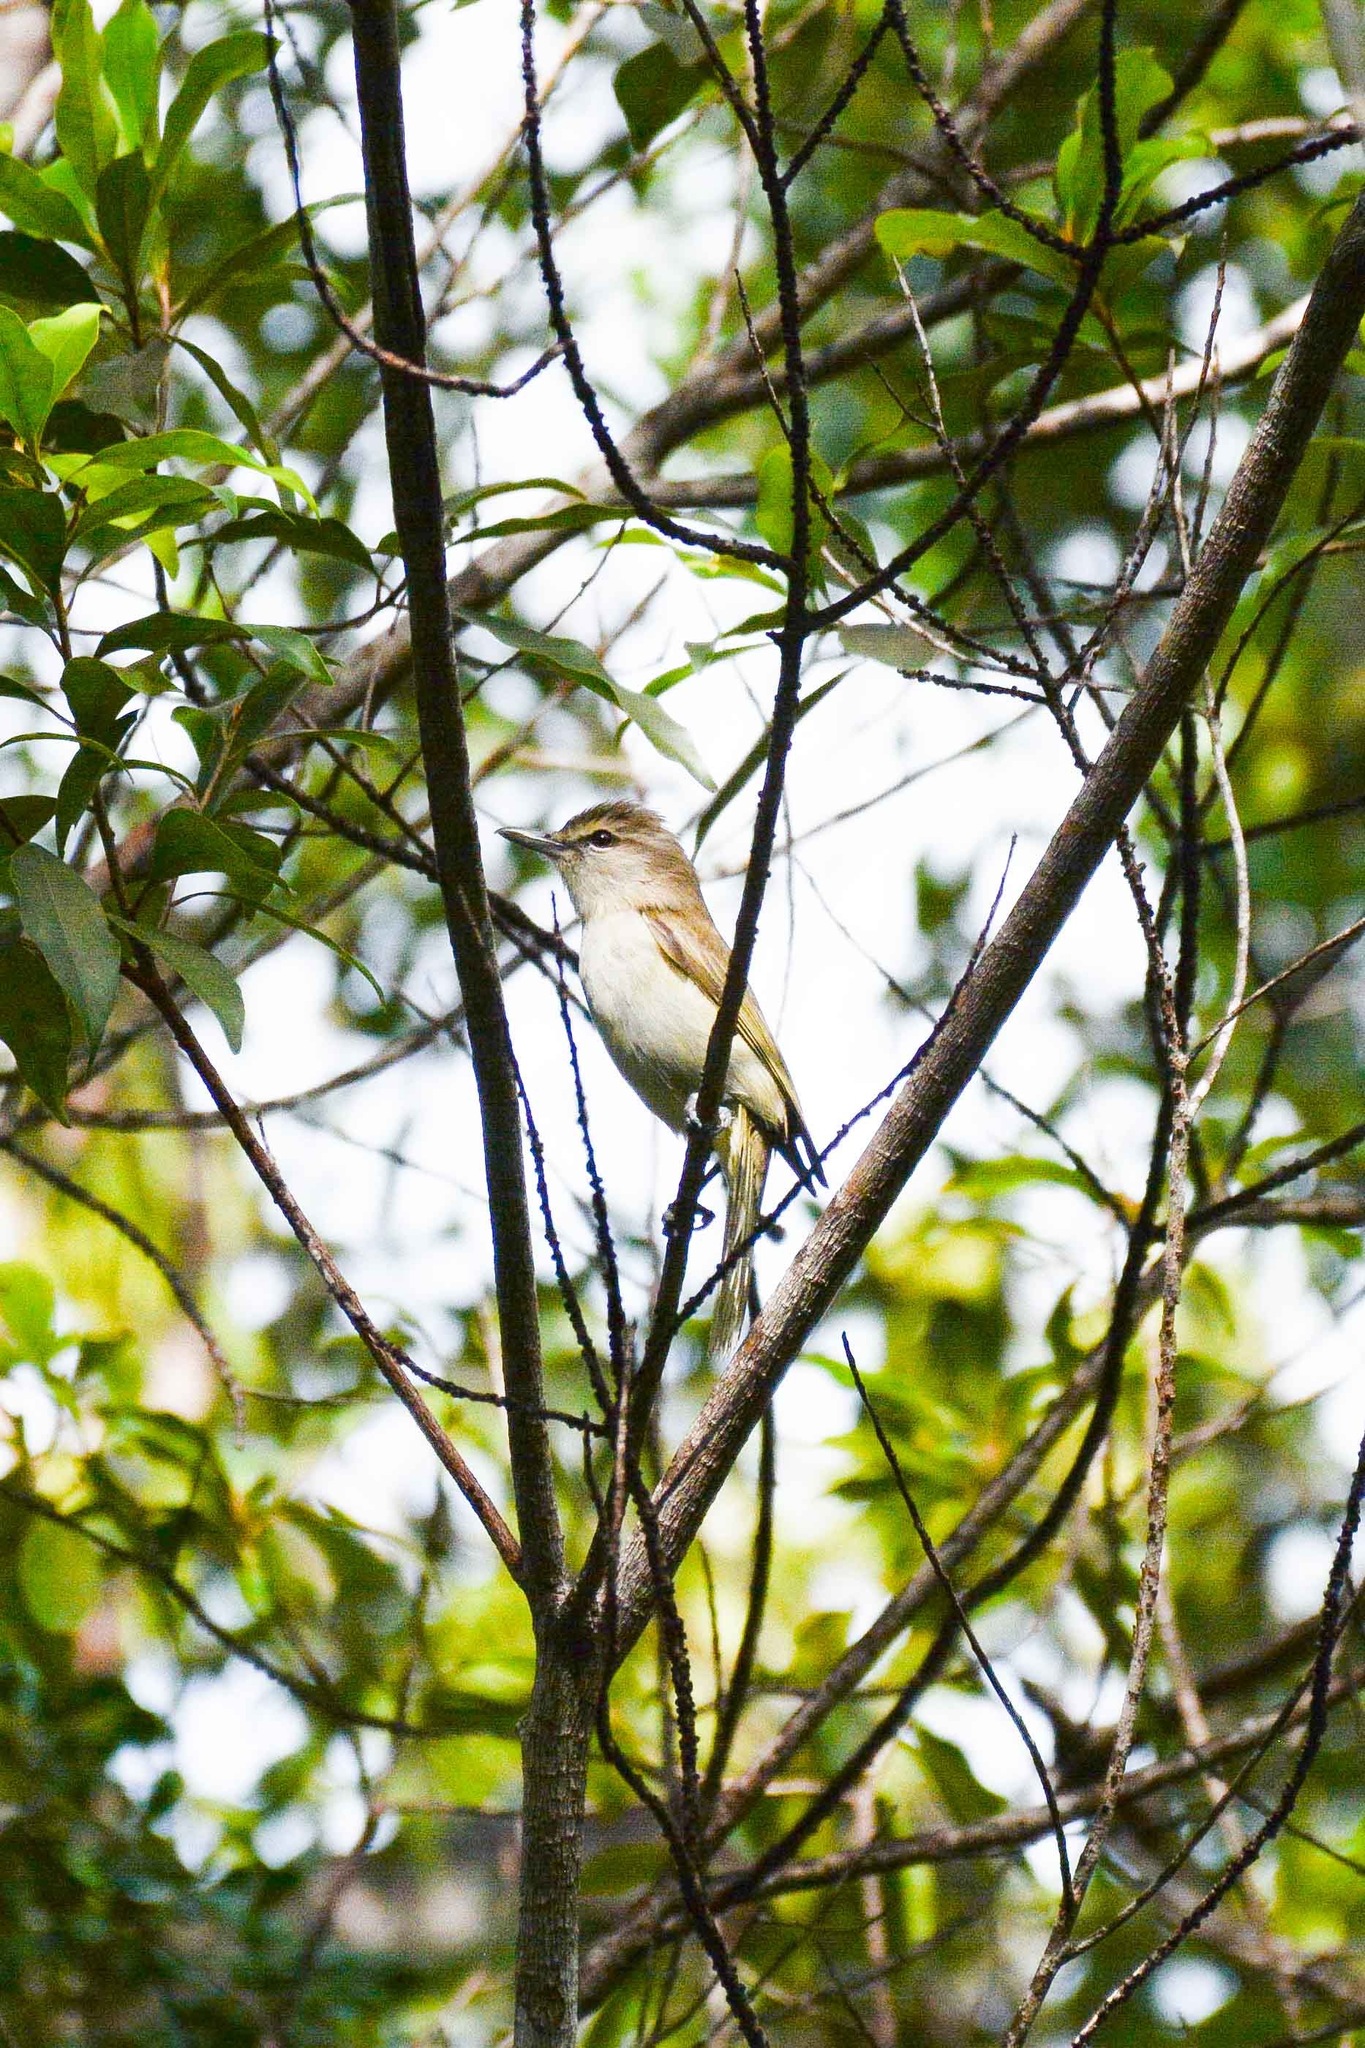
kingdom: Animalia
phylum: Chordata
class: Aves
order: Passeriformes
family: Vireonidae
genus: Vireo
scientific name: Vireo magister
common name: Yucatan vireo
